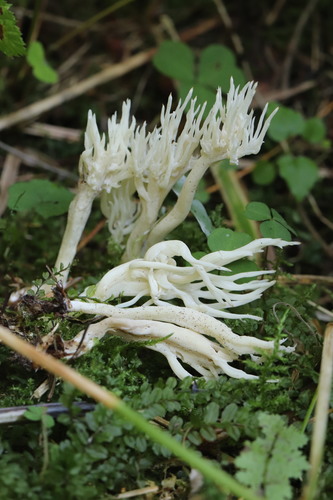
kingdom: Fungi
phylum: Basidiomycota
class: Agaricomycetes
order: Cantharellales
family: Hydnaceae
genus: Clavulina
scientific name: Clavulina rugosa
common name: Wrinkled club
